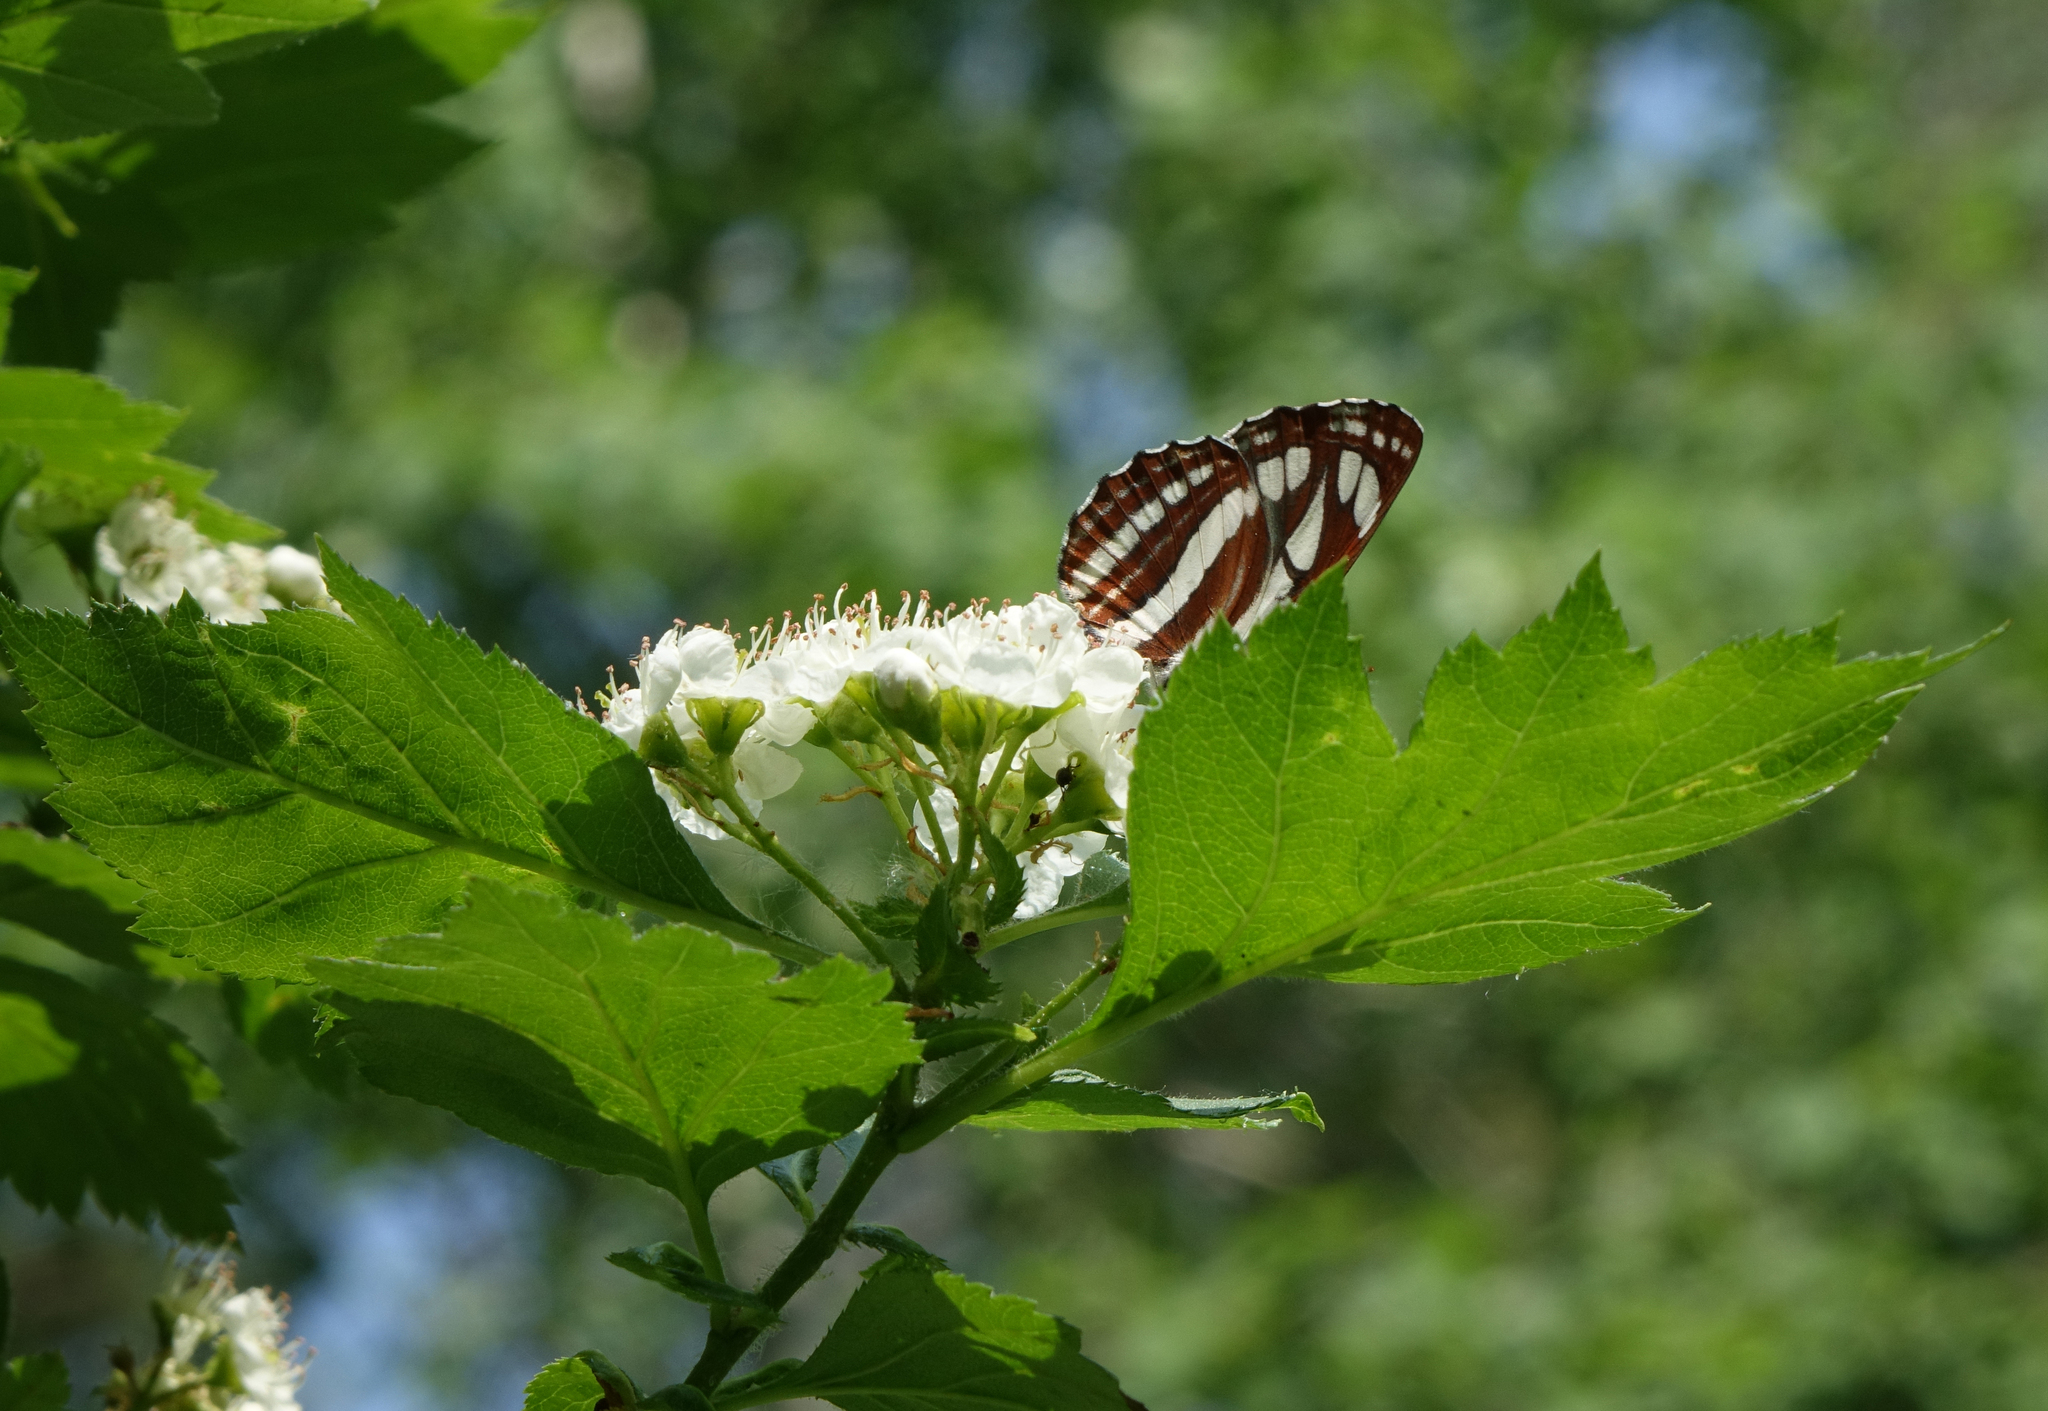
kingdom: Animalia
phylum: Arthropoda
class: Insecta
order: Lepidoptera
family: Nymphalidae
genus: Neptis
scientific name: Neptis sappho
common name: Common glider
